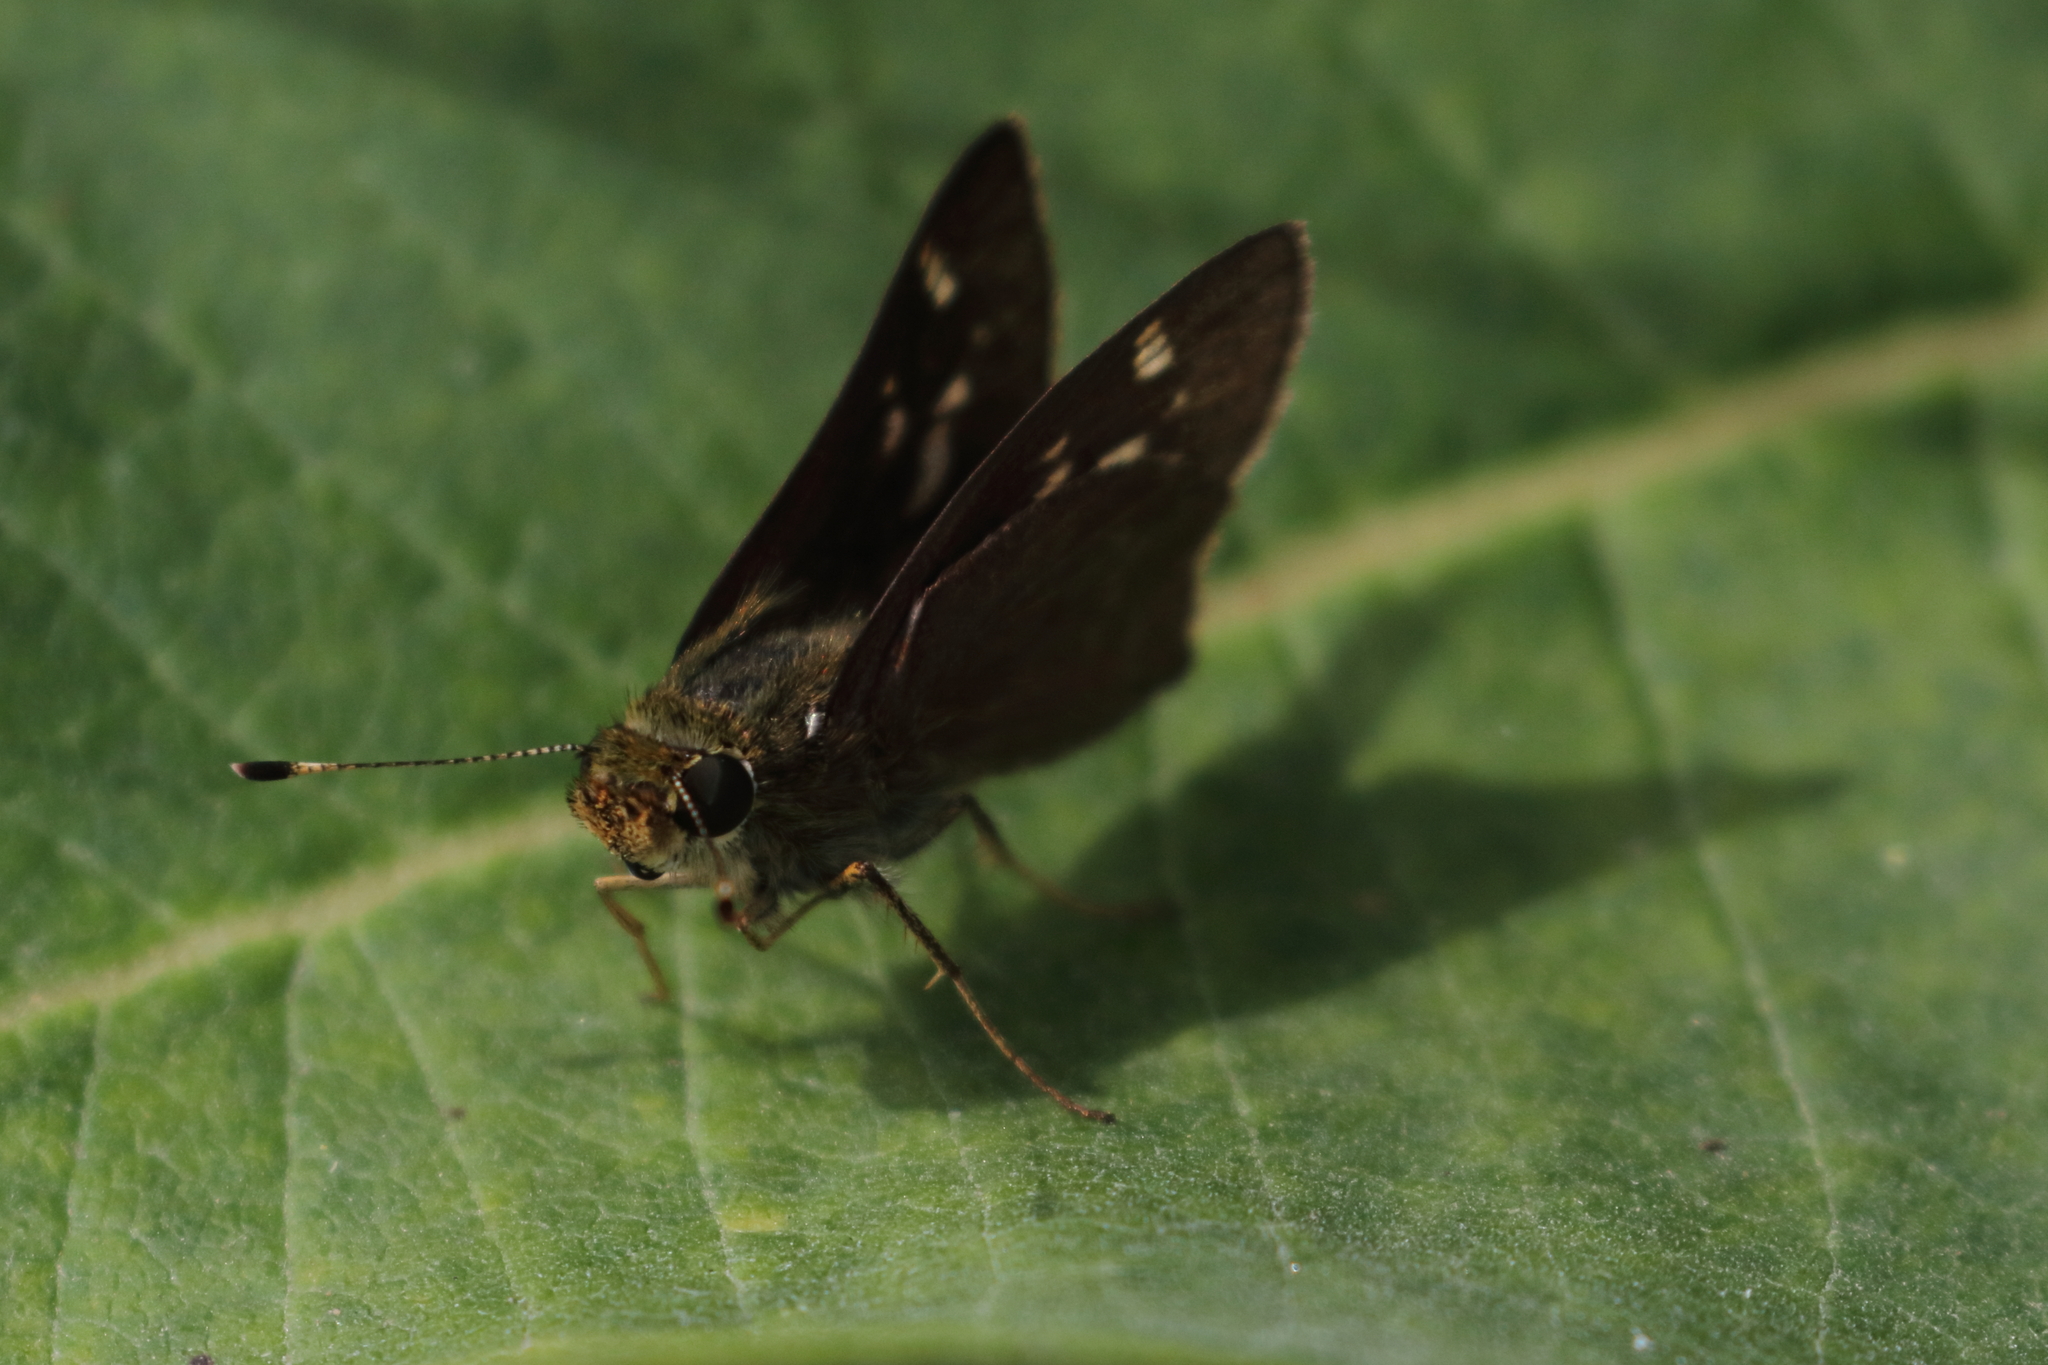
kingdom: Animalia
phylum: Arthropoda
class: Insecta
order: Lepidoptera
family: Hesperiidae
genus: Vernia
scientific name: Vernia verna
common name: Little glassywing
